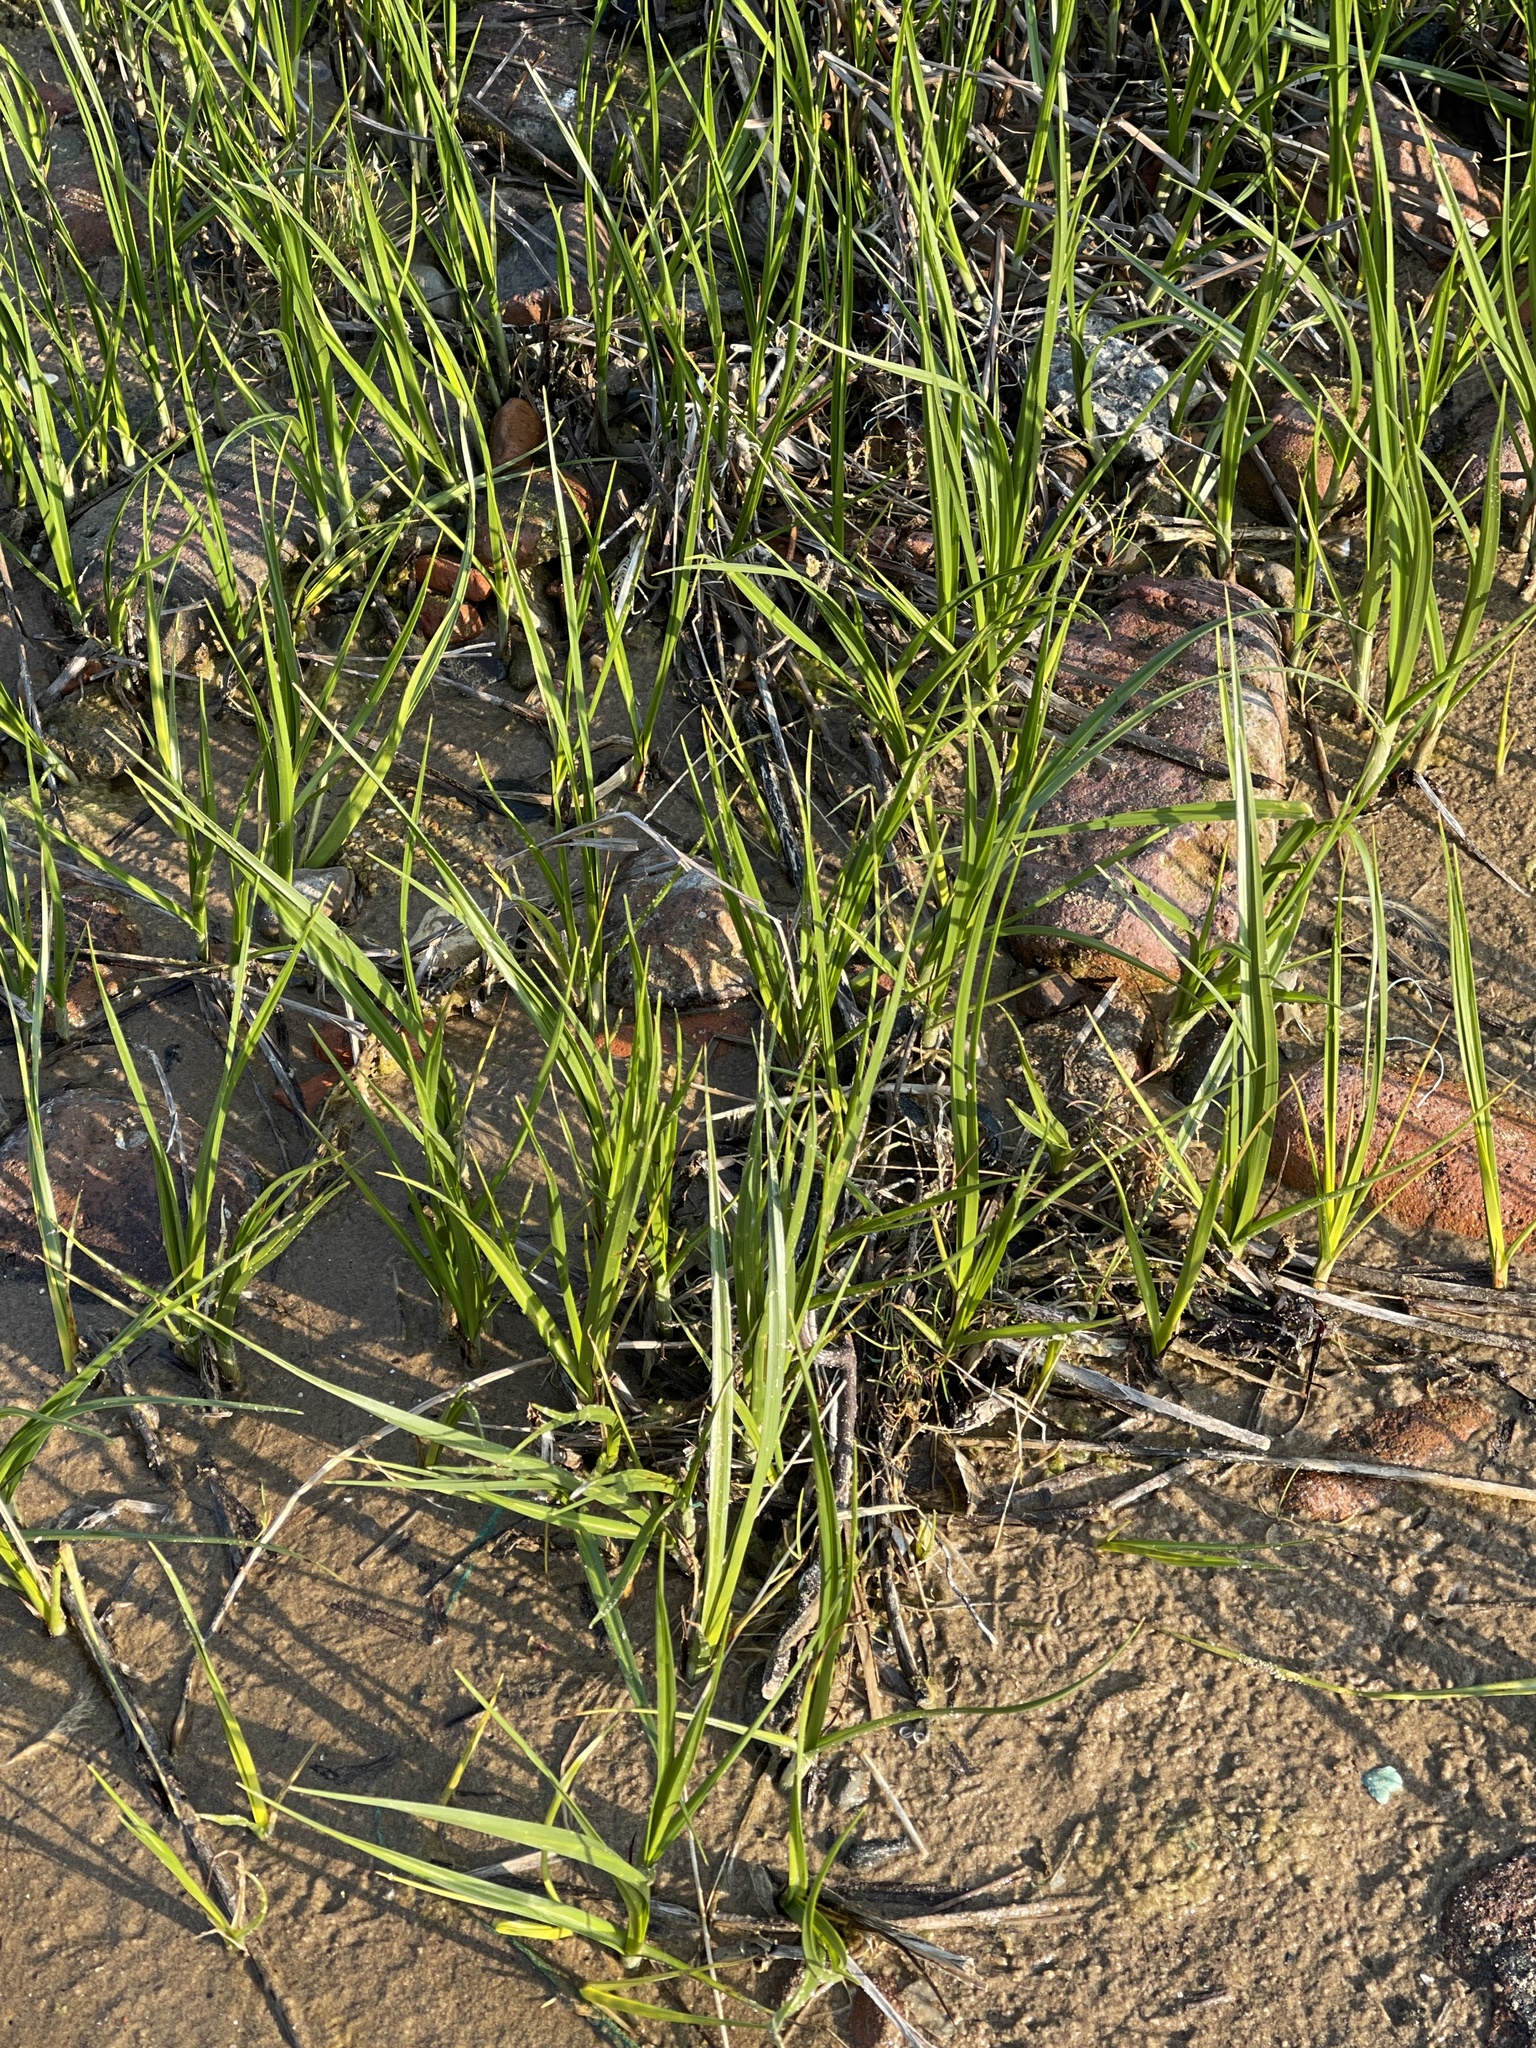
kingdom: Plantae
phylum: Tracheophyta
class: Liliopsida
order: Poales
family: Cyperaceae
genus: Bolboschoenus
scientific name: Bolboschoenus maritimus
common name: Sea club-rush
